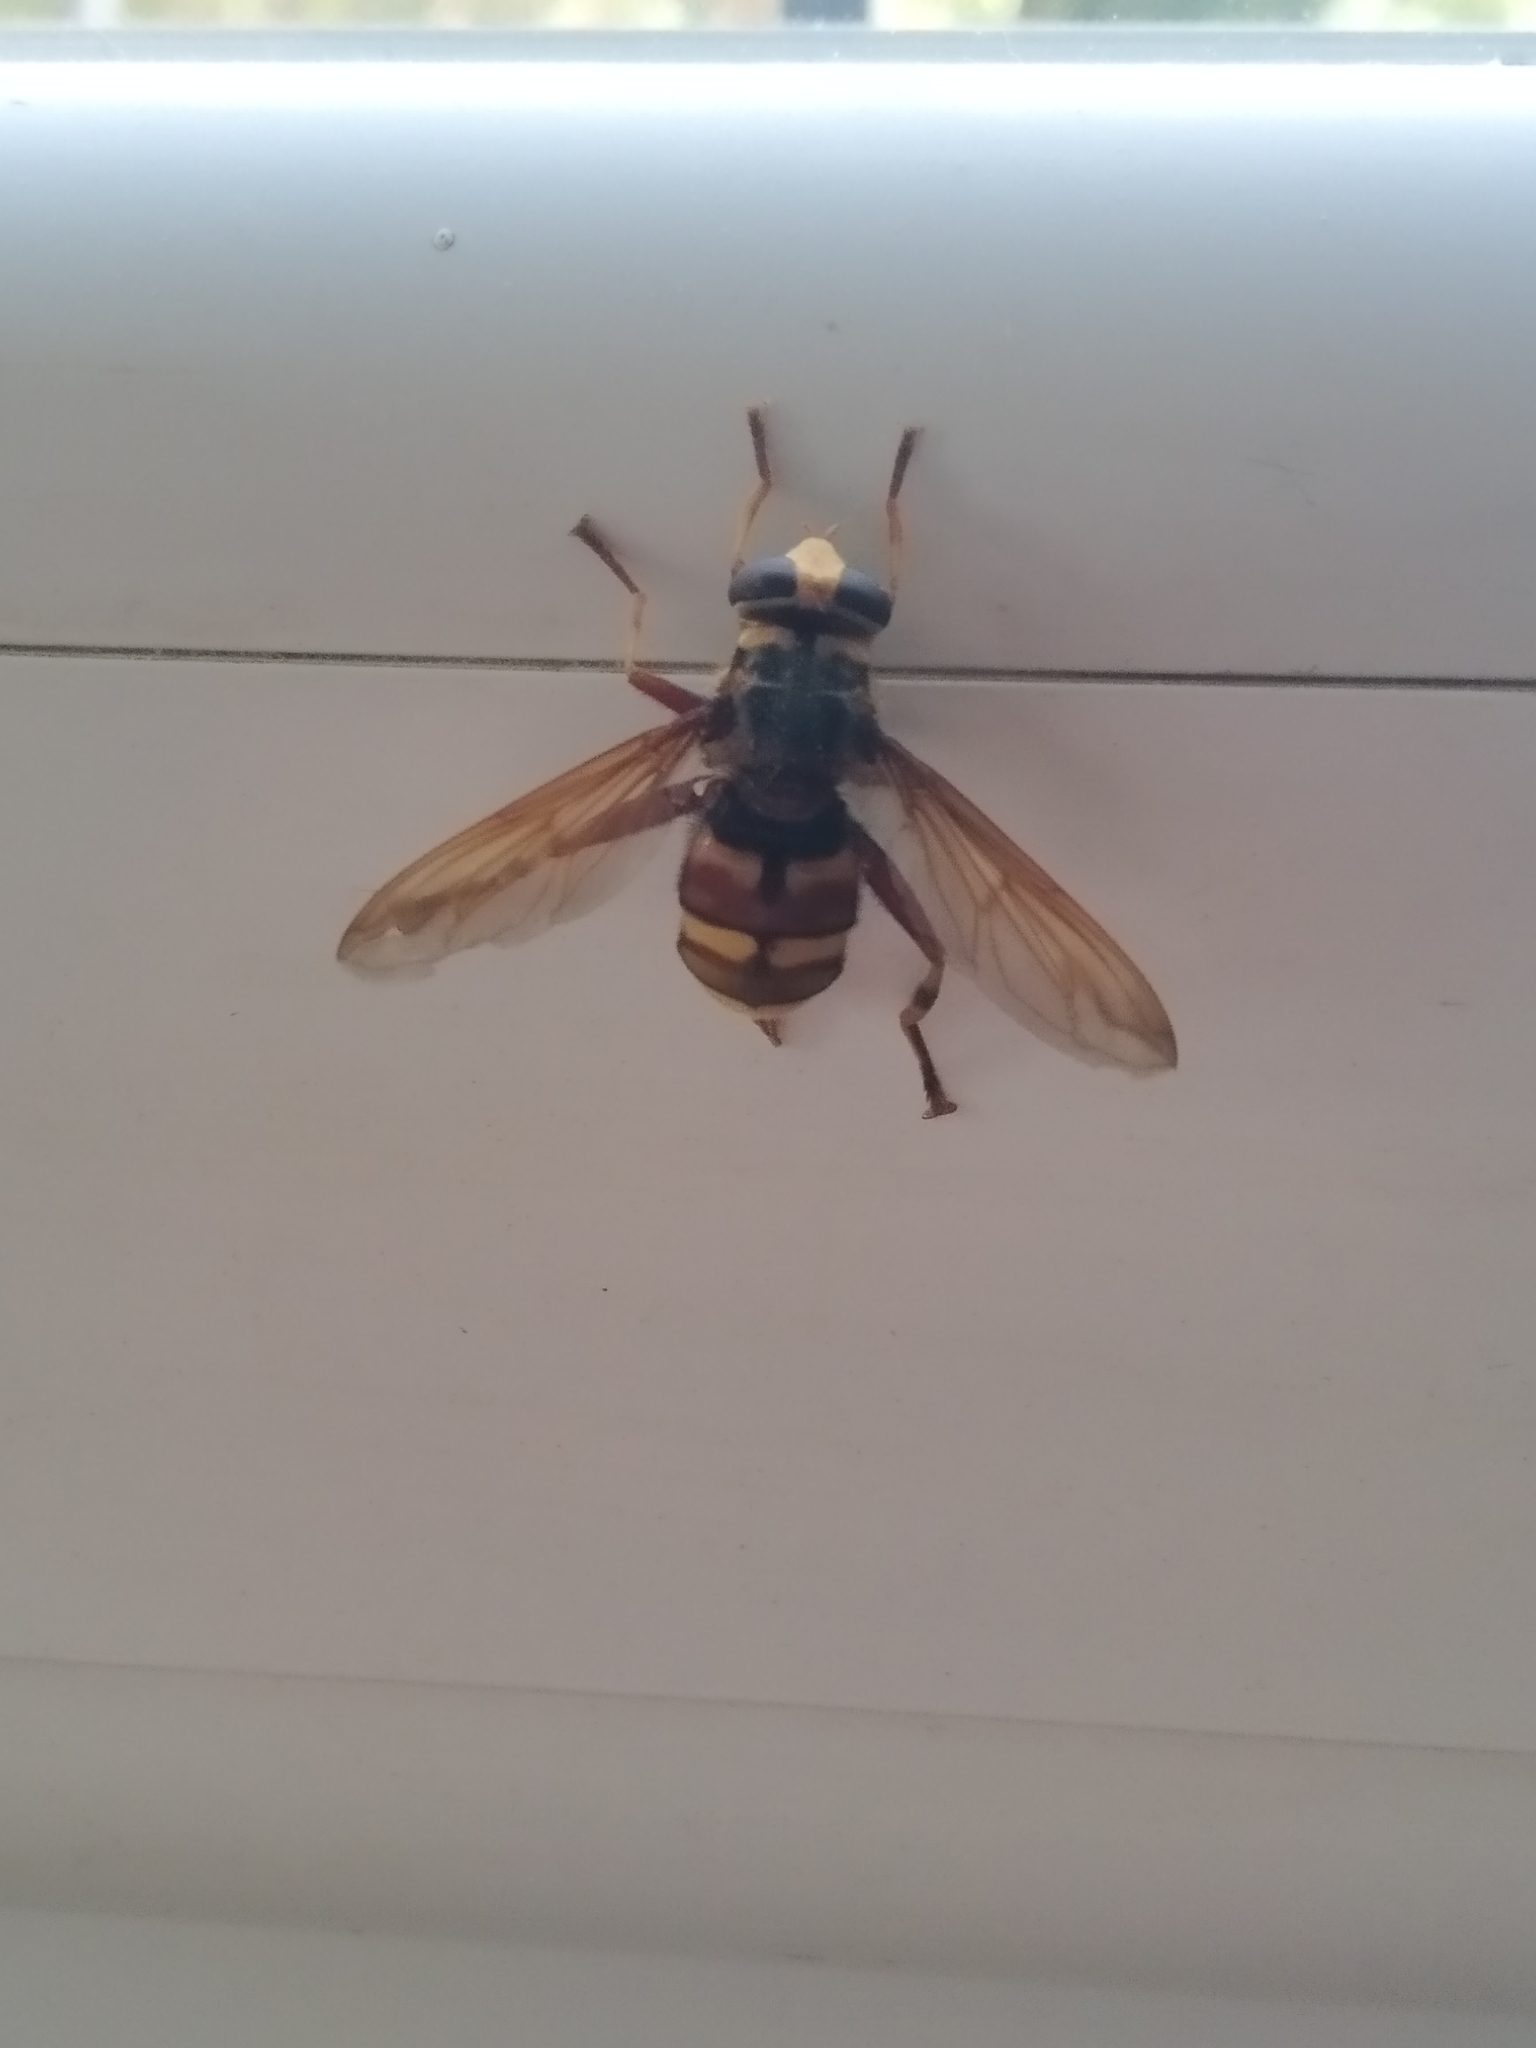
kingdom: Animalia
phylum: Arthropoda
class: Insecta
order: Diptera
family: Syrphidae
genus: Milesia
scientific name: Milesia crabroniformis
